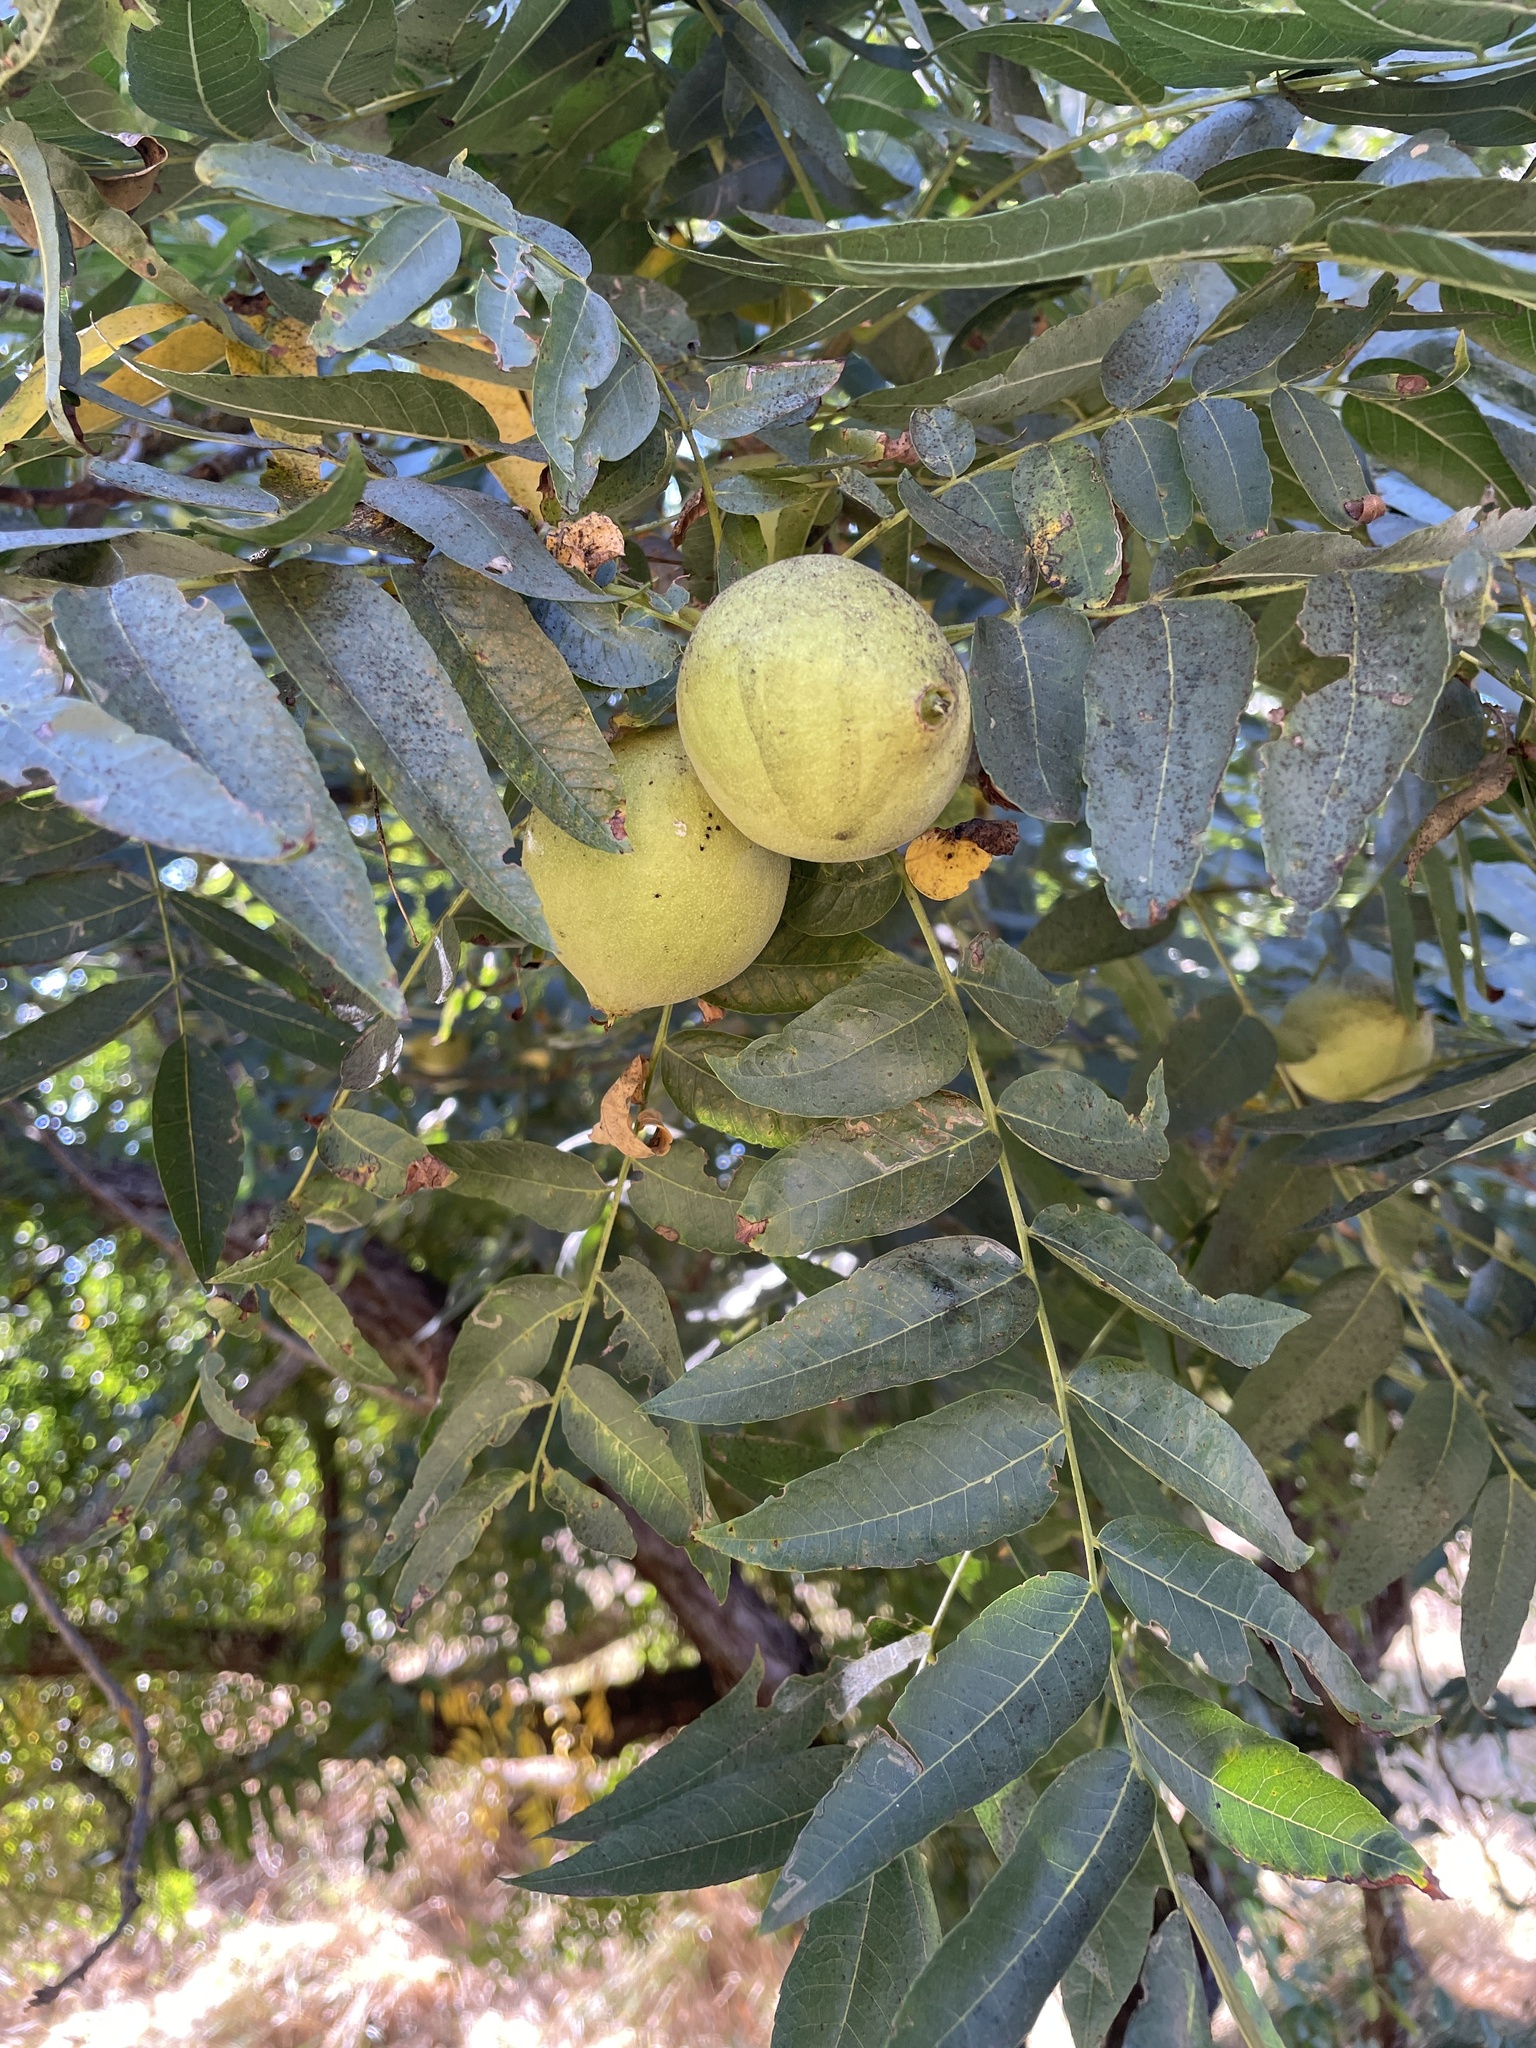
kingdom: Plantae
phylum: Tracheophyta
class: Magnoliopsida
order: Fagales
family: Juglandaceae
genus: Juglans
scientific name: Juglans hindsii
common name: Northern california black walnut
